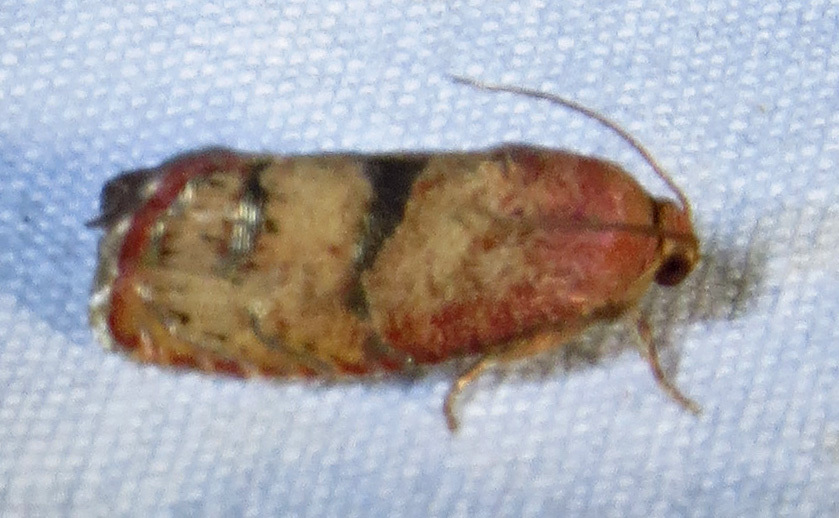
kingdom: Animalia
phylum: Arthropoda
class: Insecta
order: Lepidoptera
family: Tortricidae
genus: Cydia
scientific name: Cydia latiferreana
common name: Filbertworm moth
